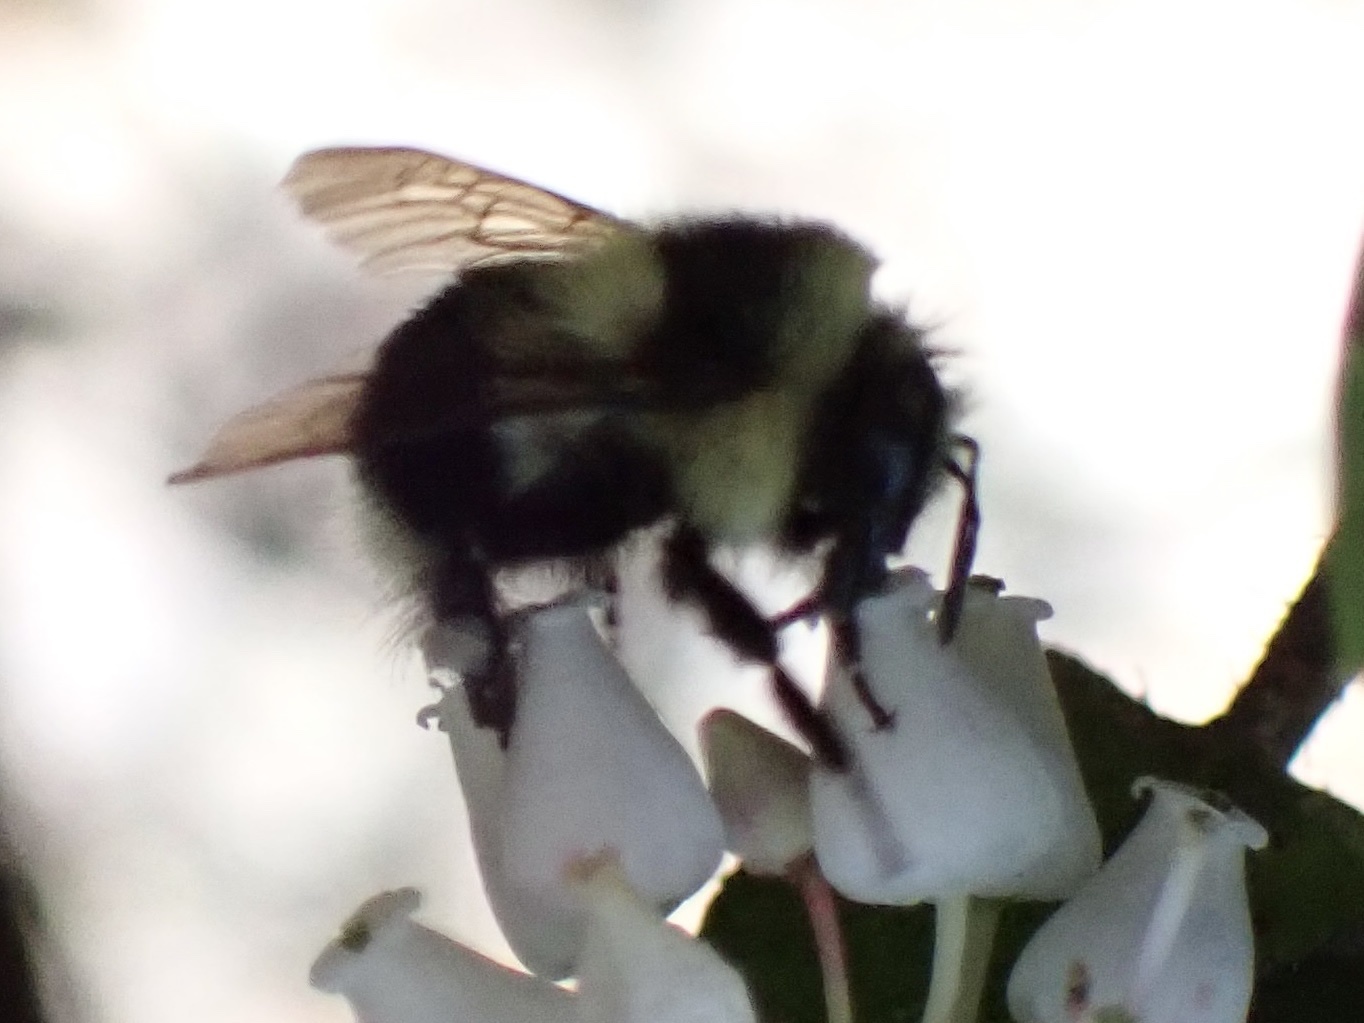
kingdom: Animalia
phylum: Arthropoda
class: Insecta
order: Hymenoptera
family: Apidae
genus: Bombus
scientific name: Bombus melanopygus
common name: Black tail bumble bee
